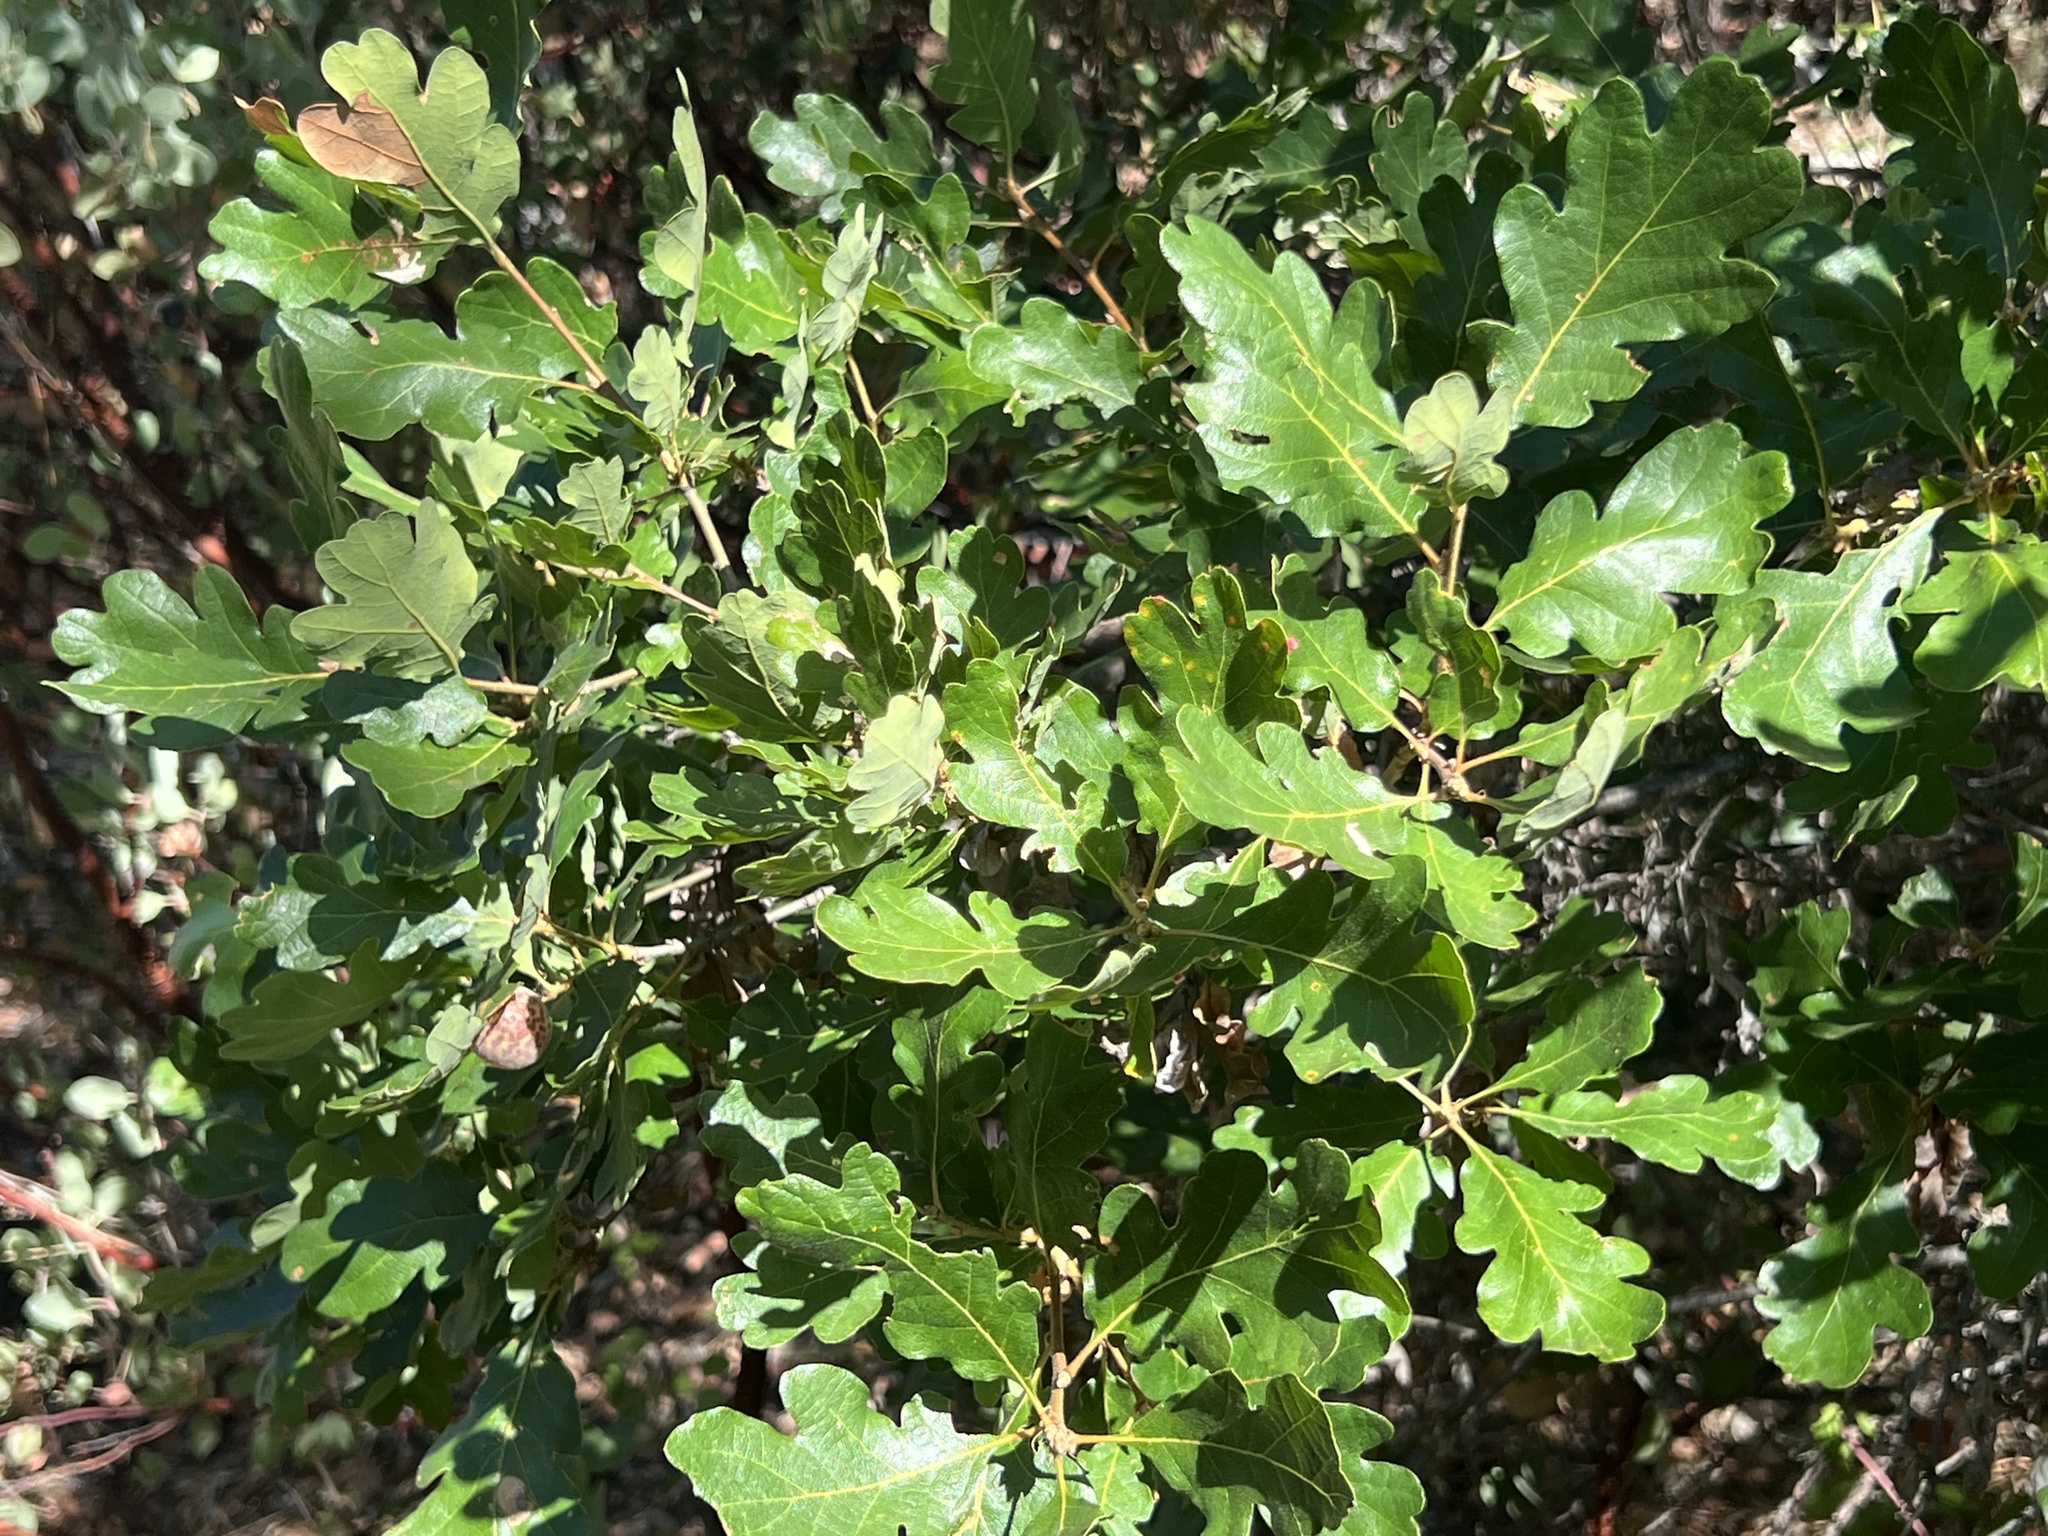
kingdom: Plantae
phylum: Tracheophyta
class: Magnoliopsida
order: Fagales
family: Fagaceae
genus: Quercus
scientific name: Quercus garryana
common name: Garry oak
